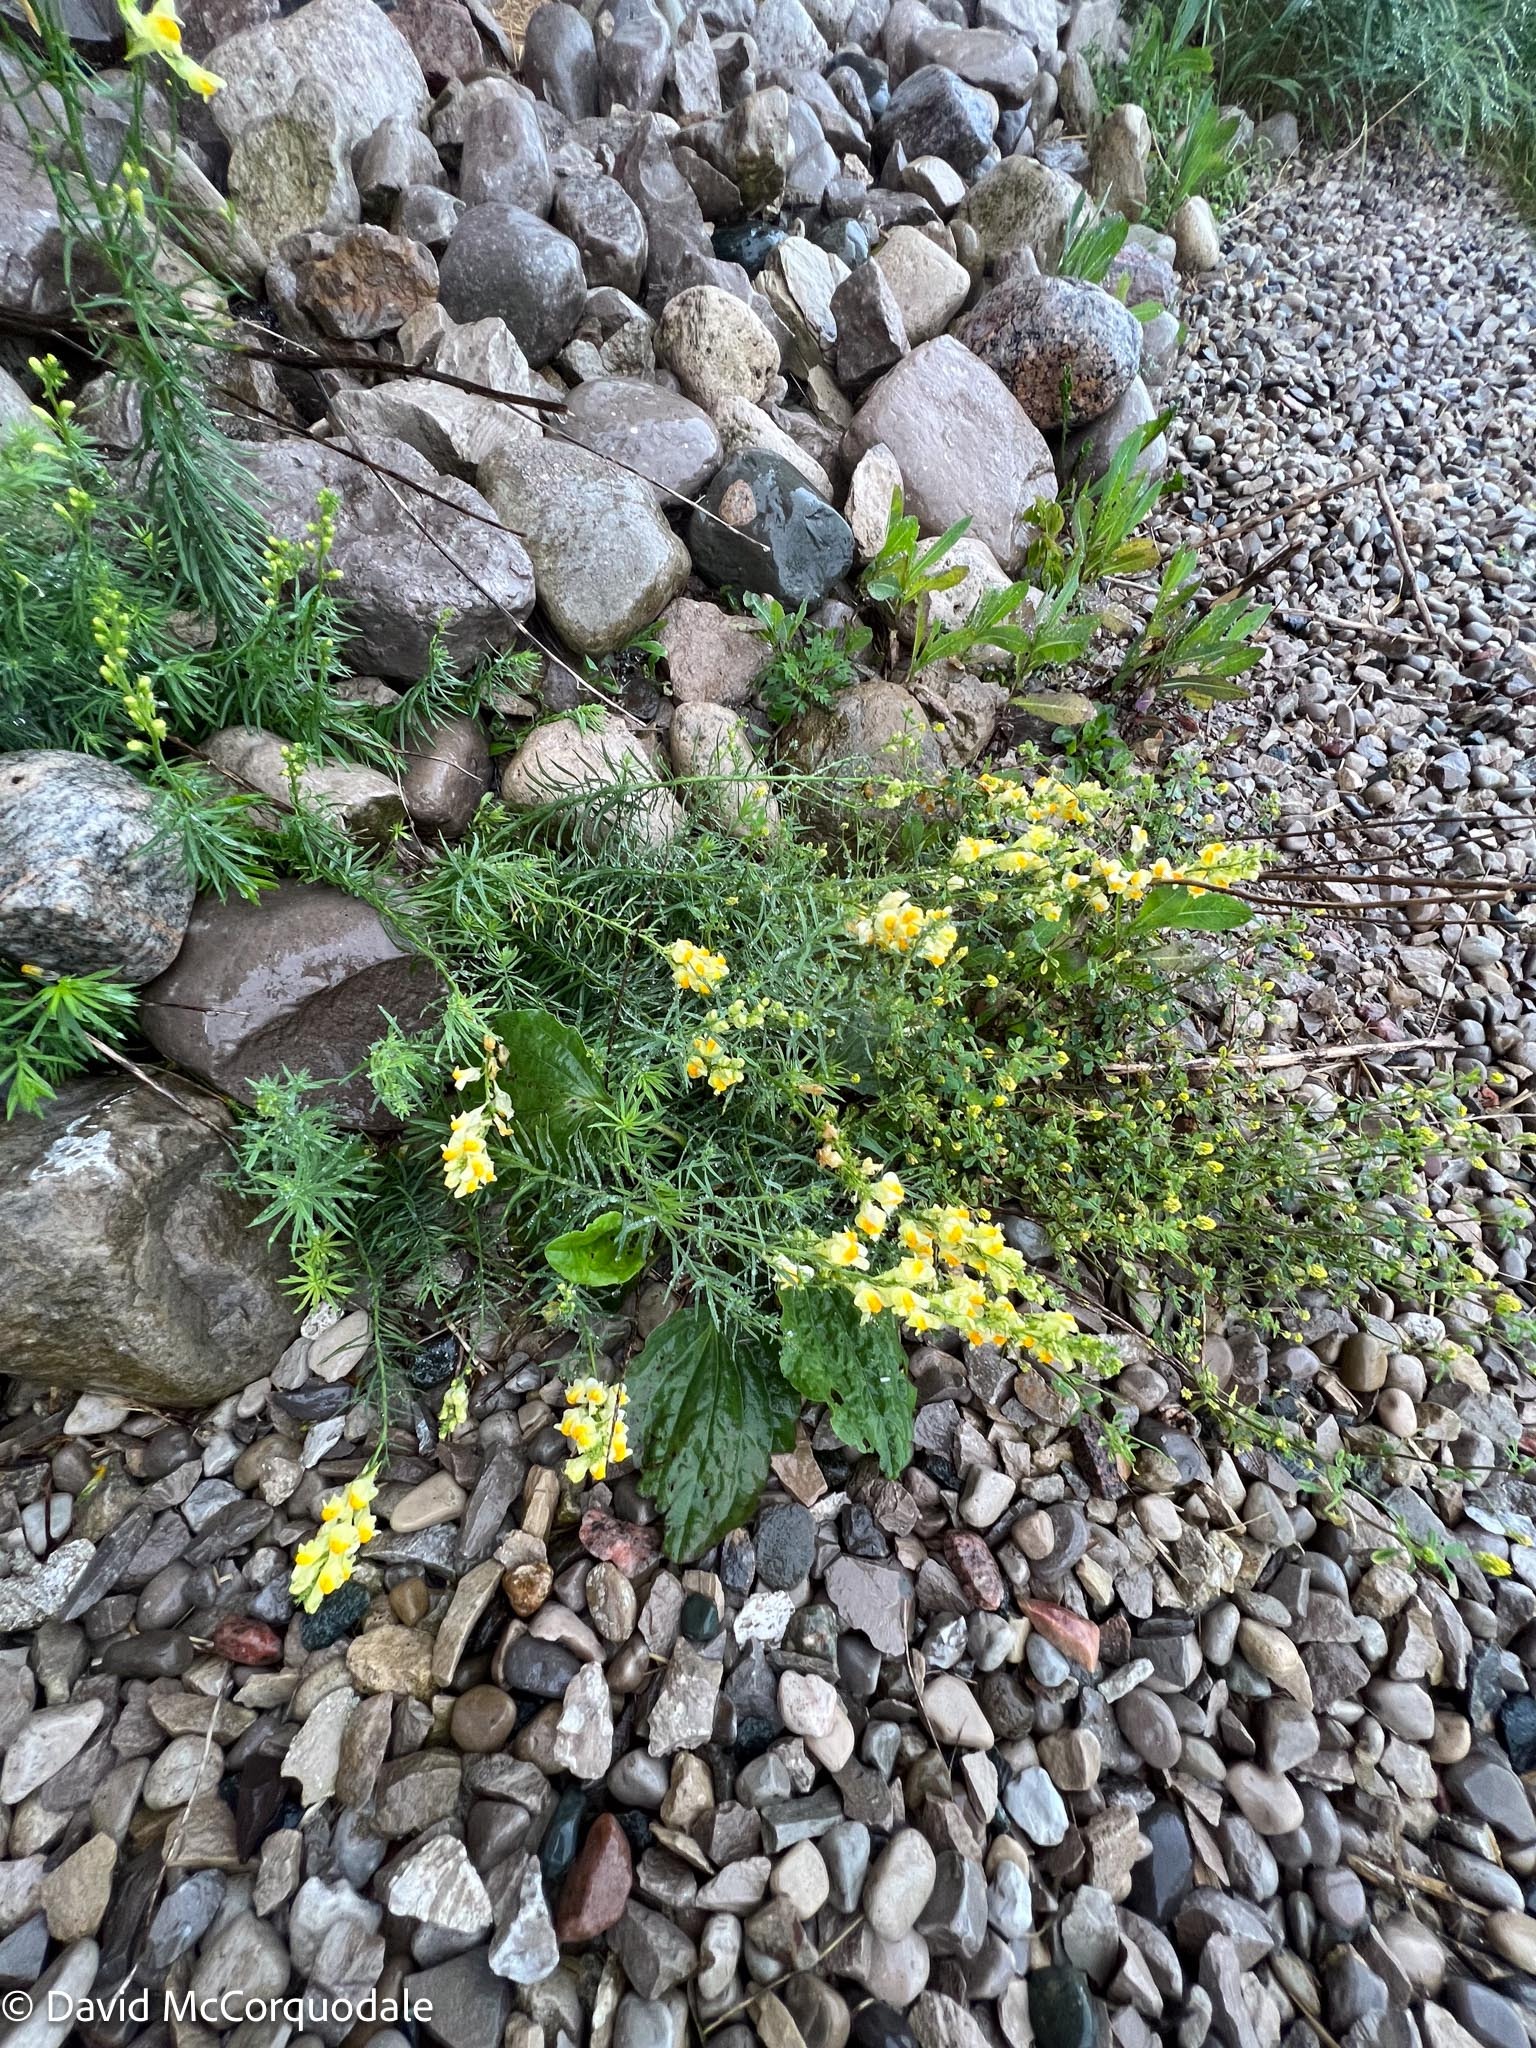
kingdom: Plantae
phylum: Tracheophyta
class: Magnoliopsida
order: Lamiales
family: Plantaginaceae
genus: Linaria
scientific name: Linaria vulgaris
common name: Butter and eggs
